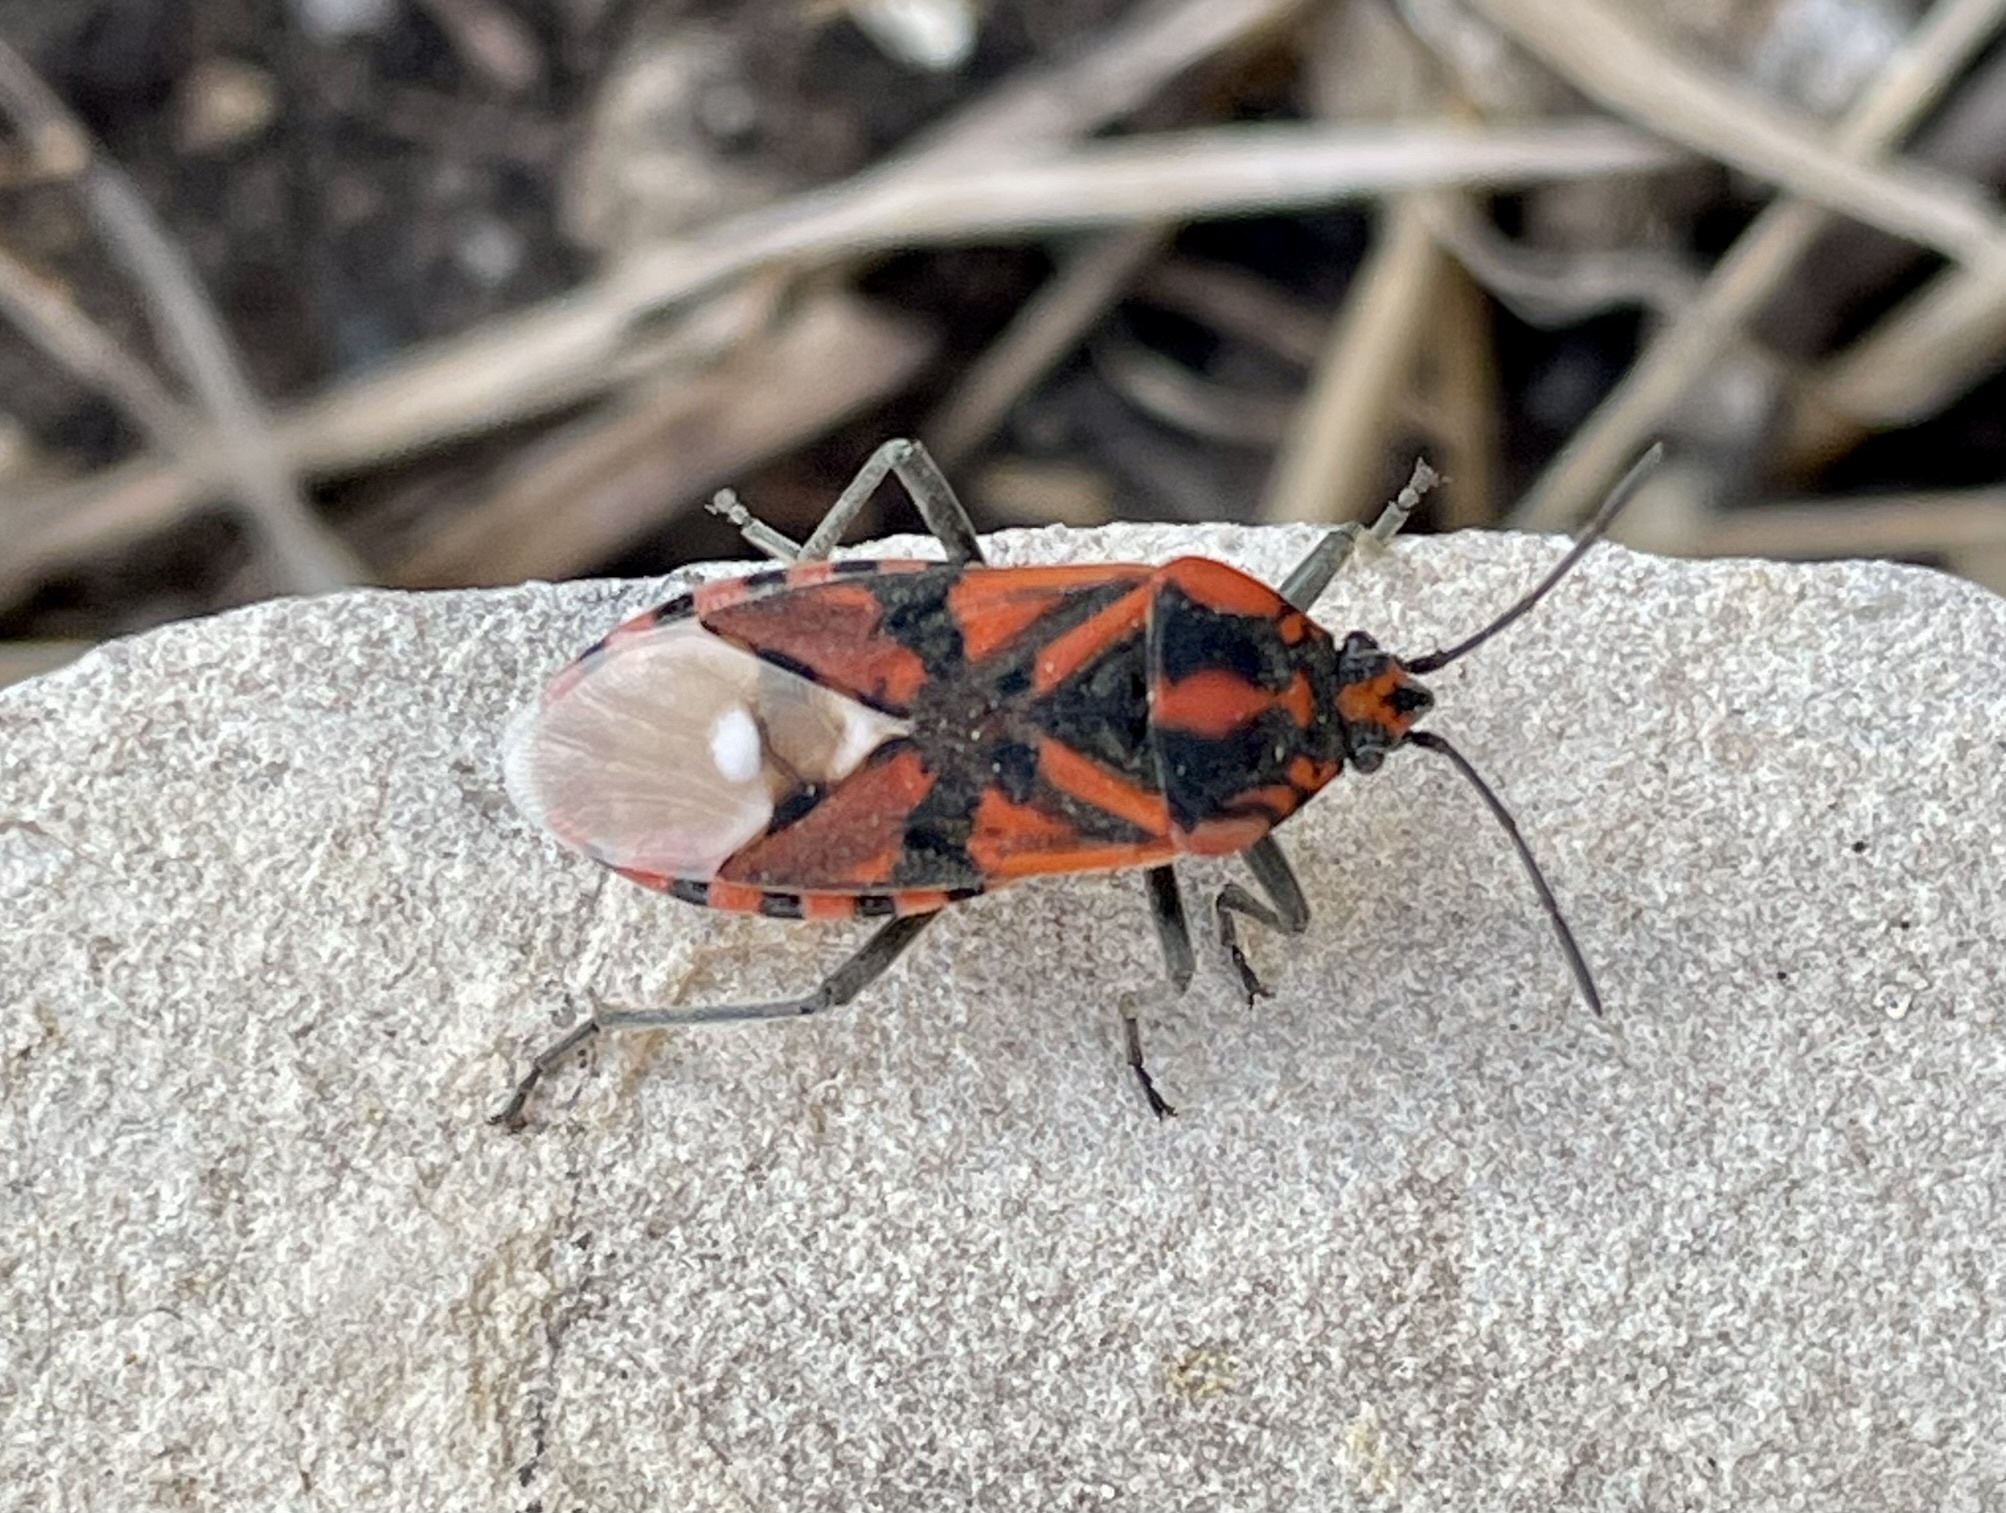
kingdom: Animalia
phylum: Arthropoda
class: Insecta
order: Hemiptera
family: Lygaeidae
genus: Spilostethus
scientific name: Spilostethus pandurus
